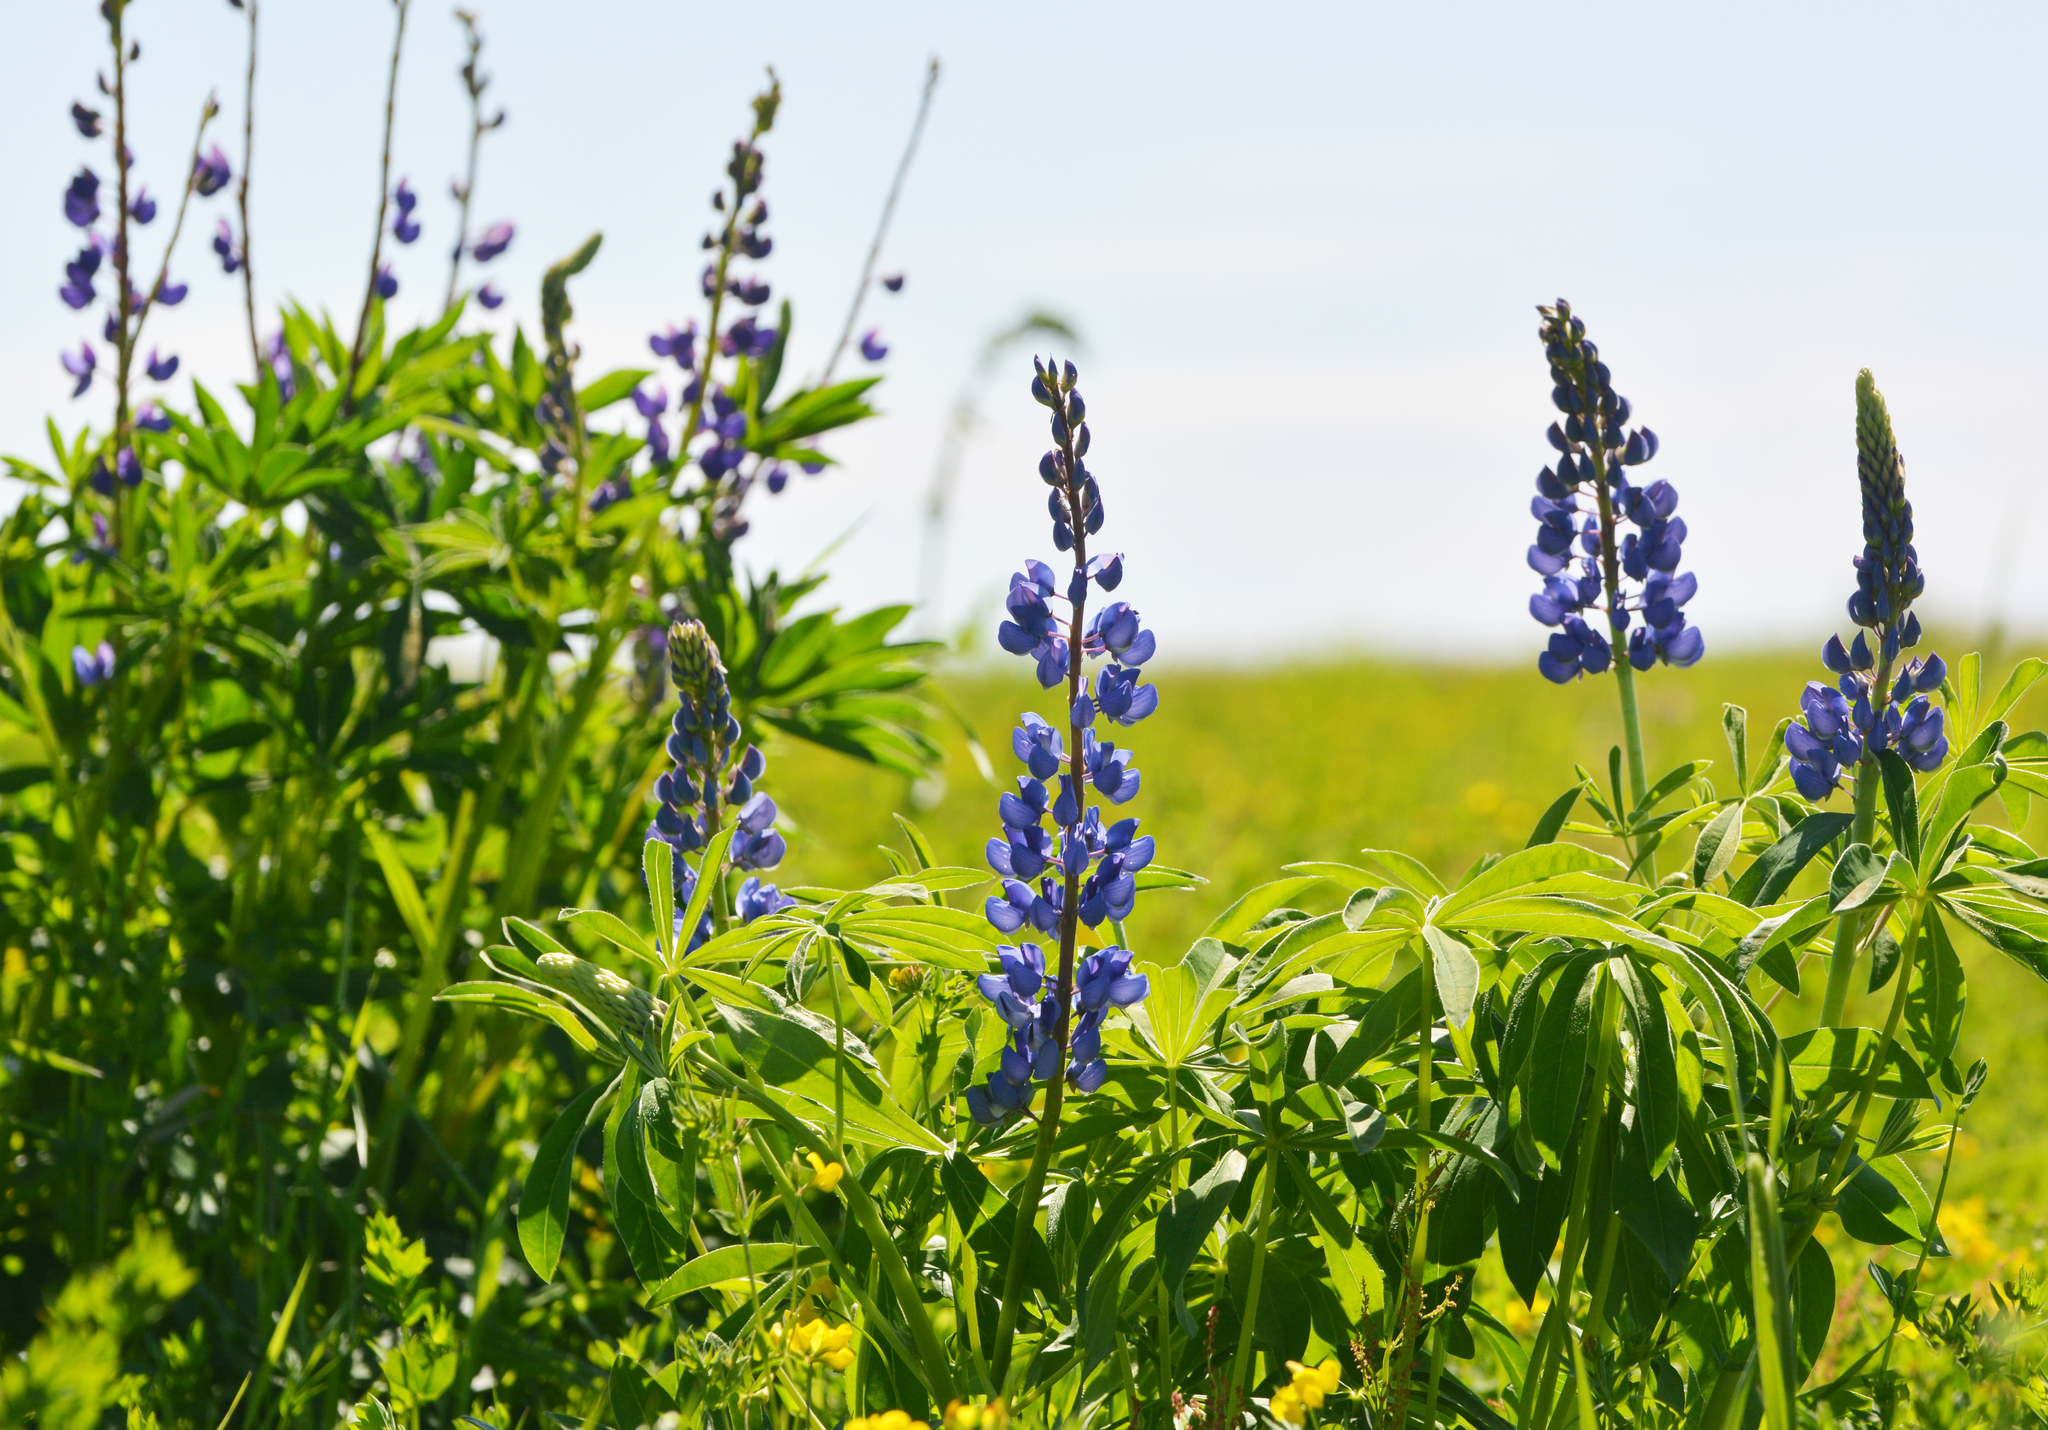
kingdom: Plantae
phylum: Tracheophyta
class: Magnoliopsida
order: Fabales
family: Fabaceae
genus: Lupinus
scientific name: Lupinus polyphyllus
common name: Garden lupin
